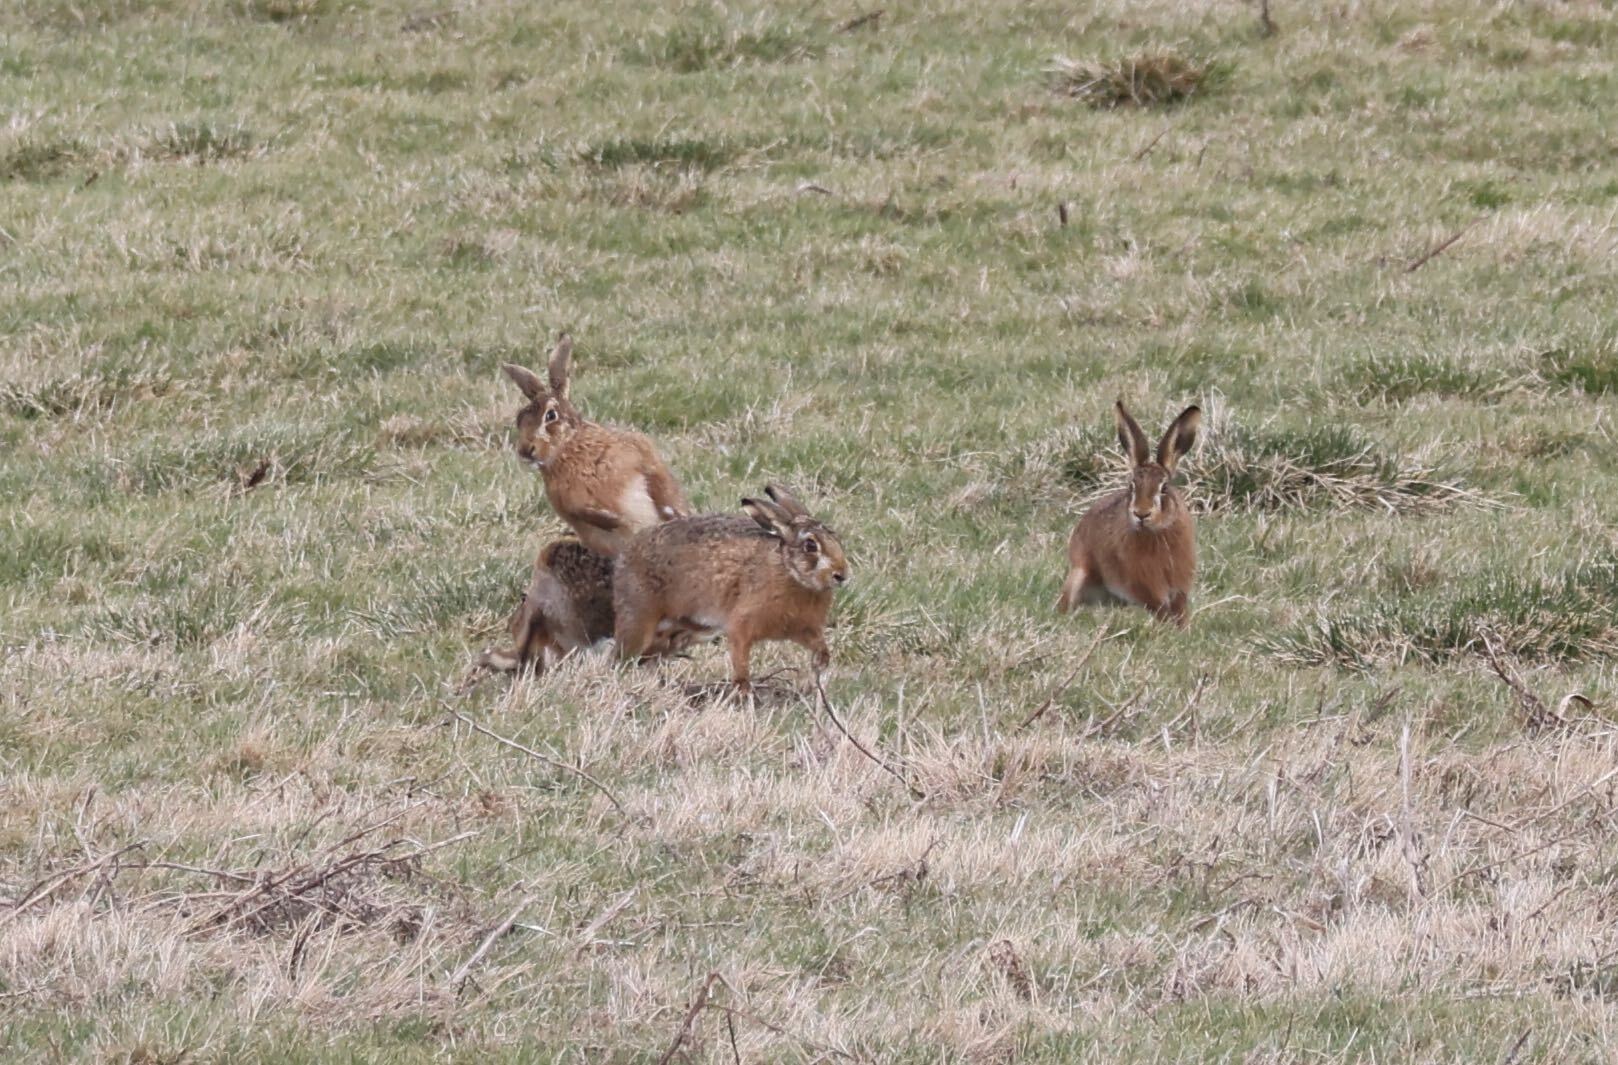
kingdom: Animalia
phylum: Chordata
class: Mammalia
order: Lagomorpha
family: Leporidae
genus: Lepus
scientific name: Lepus europaeus
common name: European hare
